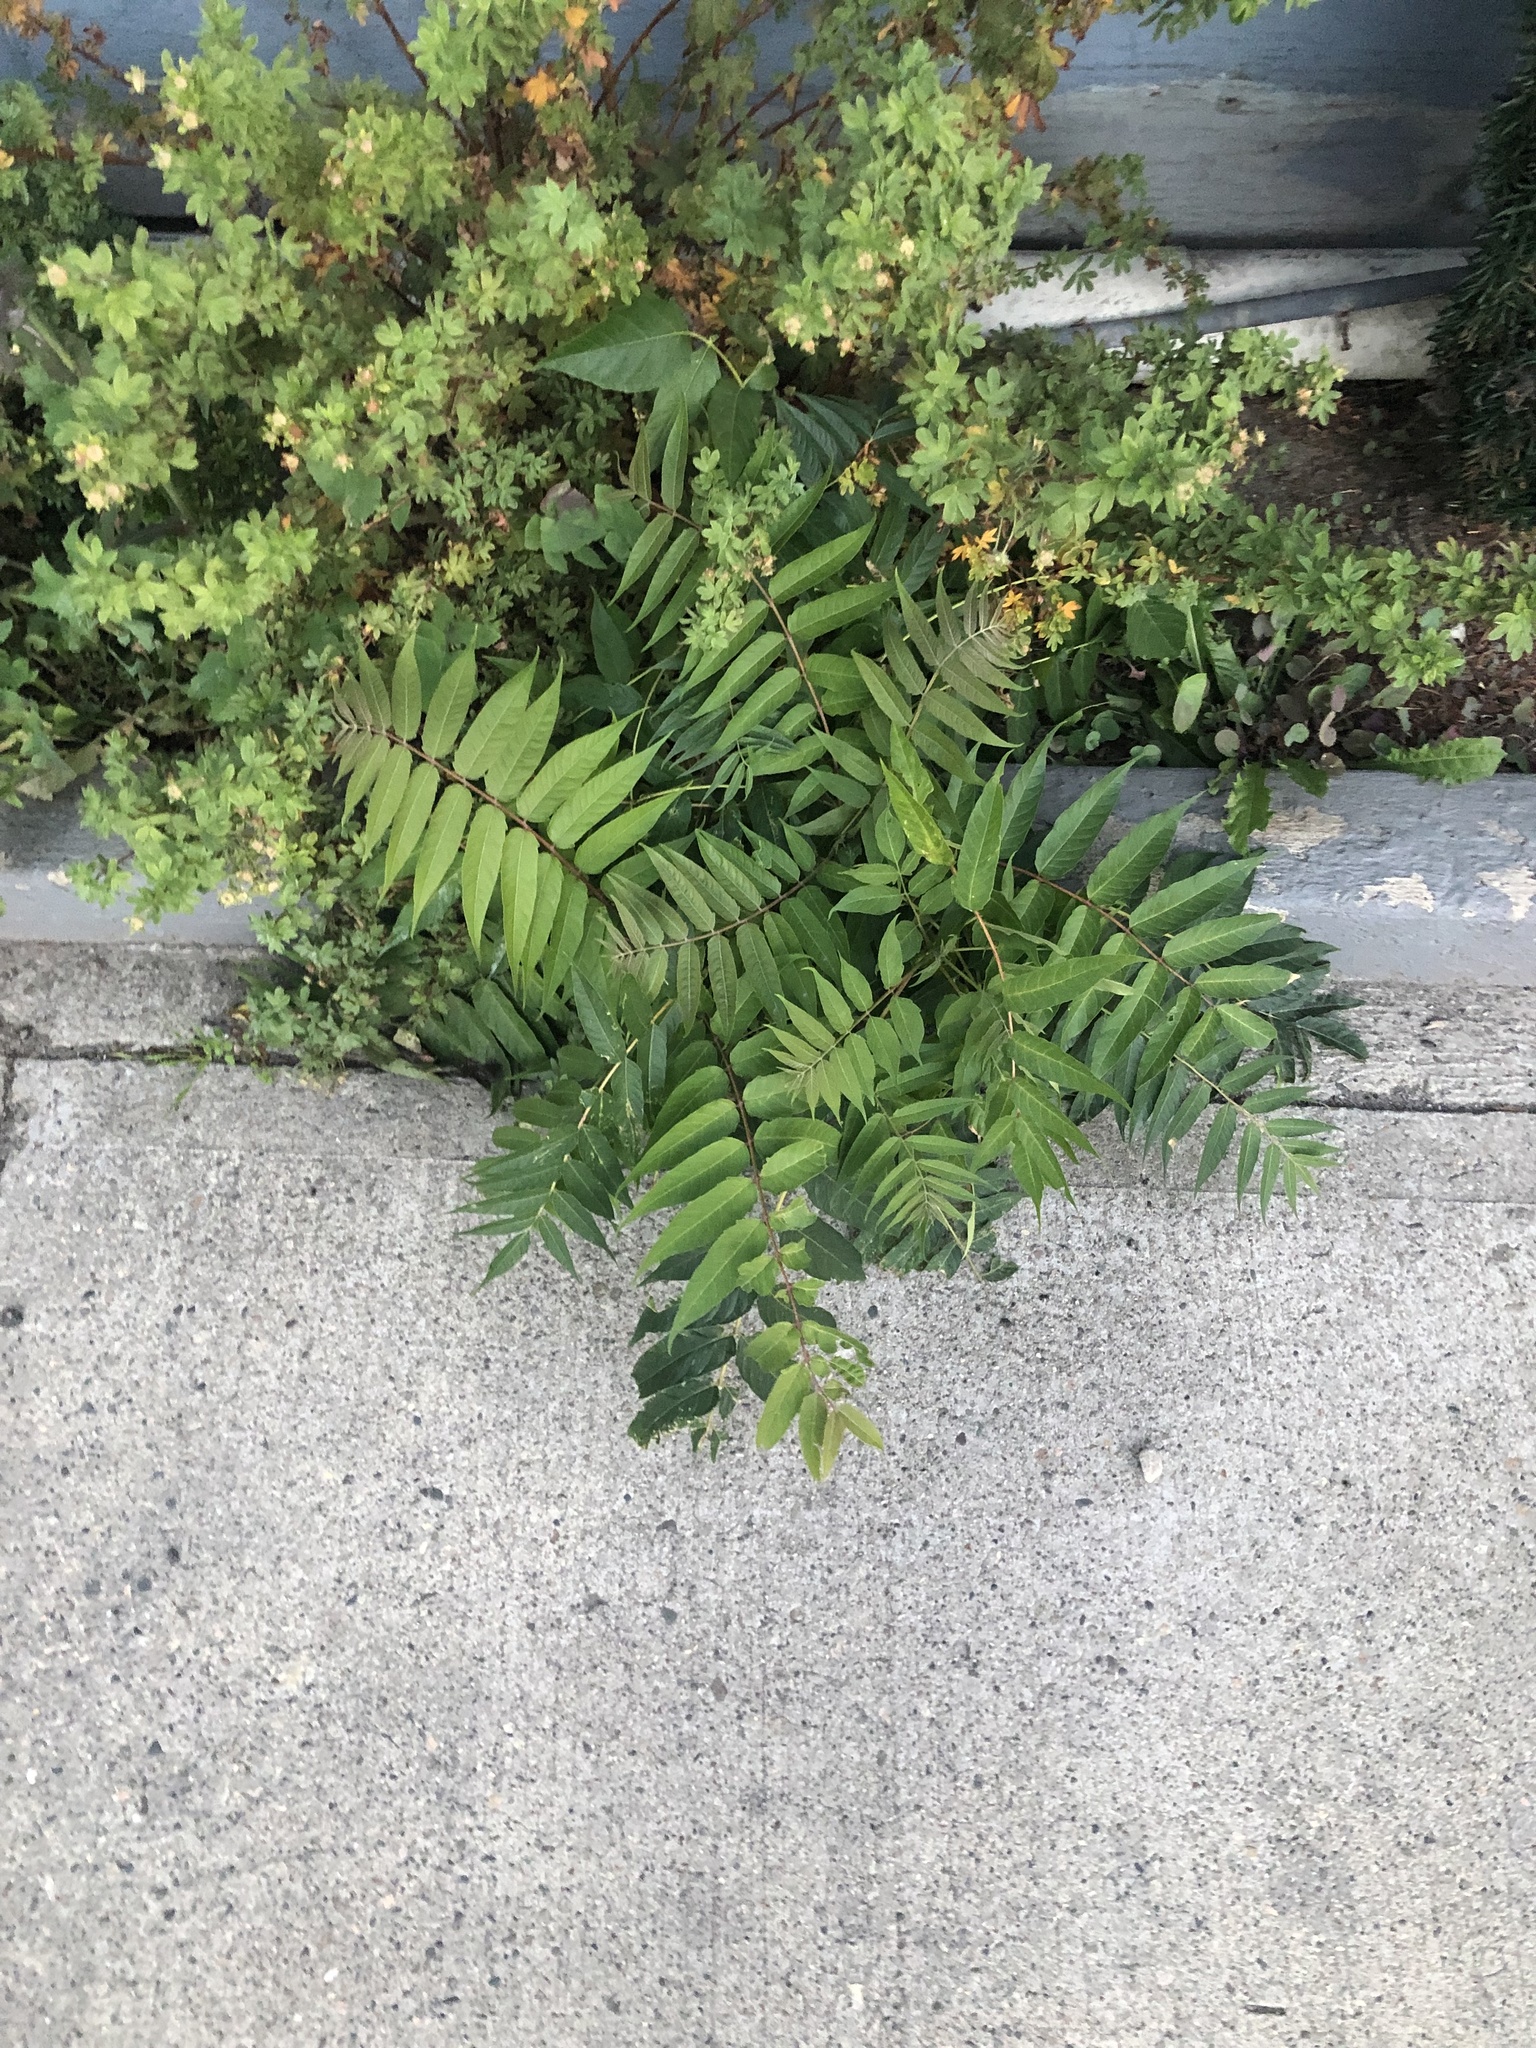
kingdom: Plantae
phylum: Tracheophyta
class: Magnoliopsida
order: Sapindales
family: Simaroubaceae
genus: Ailanthus
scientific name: Ailanthus altissima
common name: Tree-of-heaven
